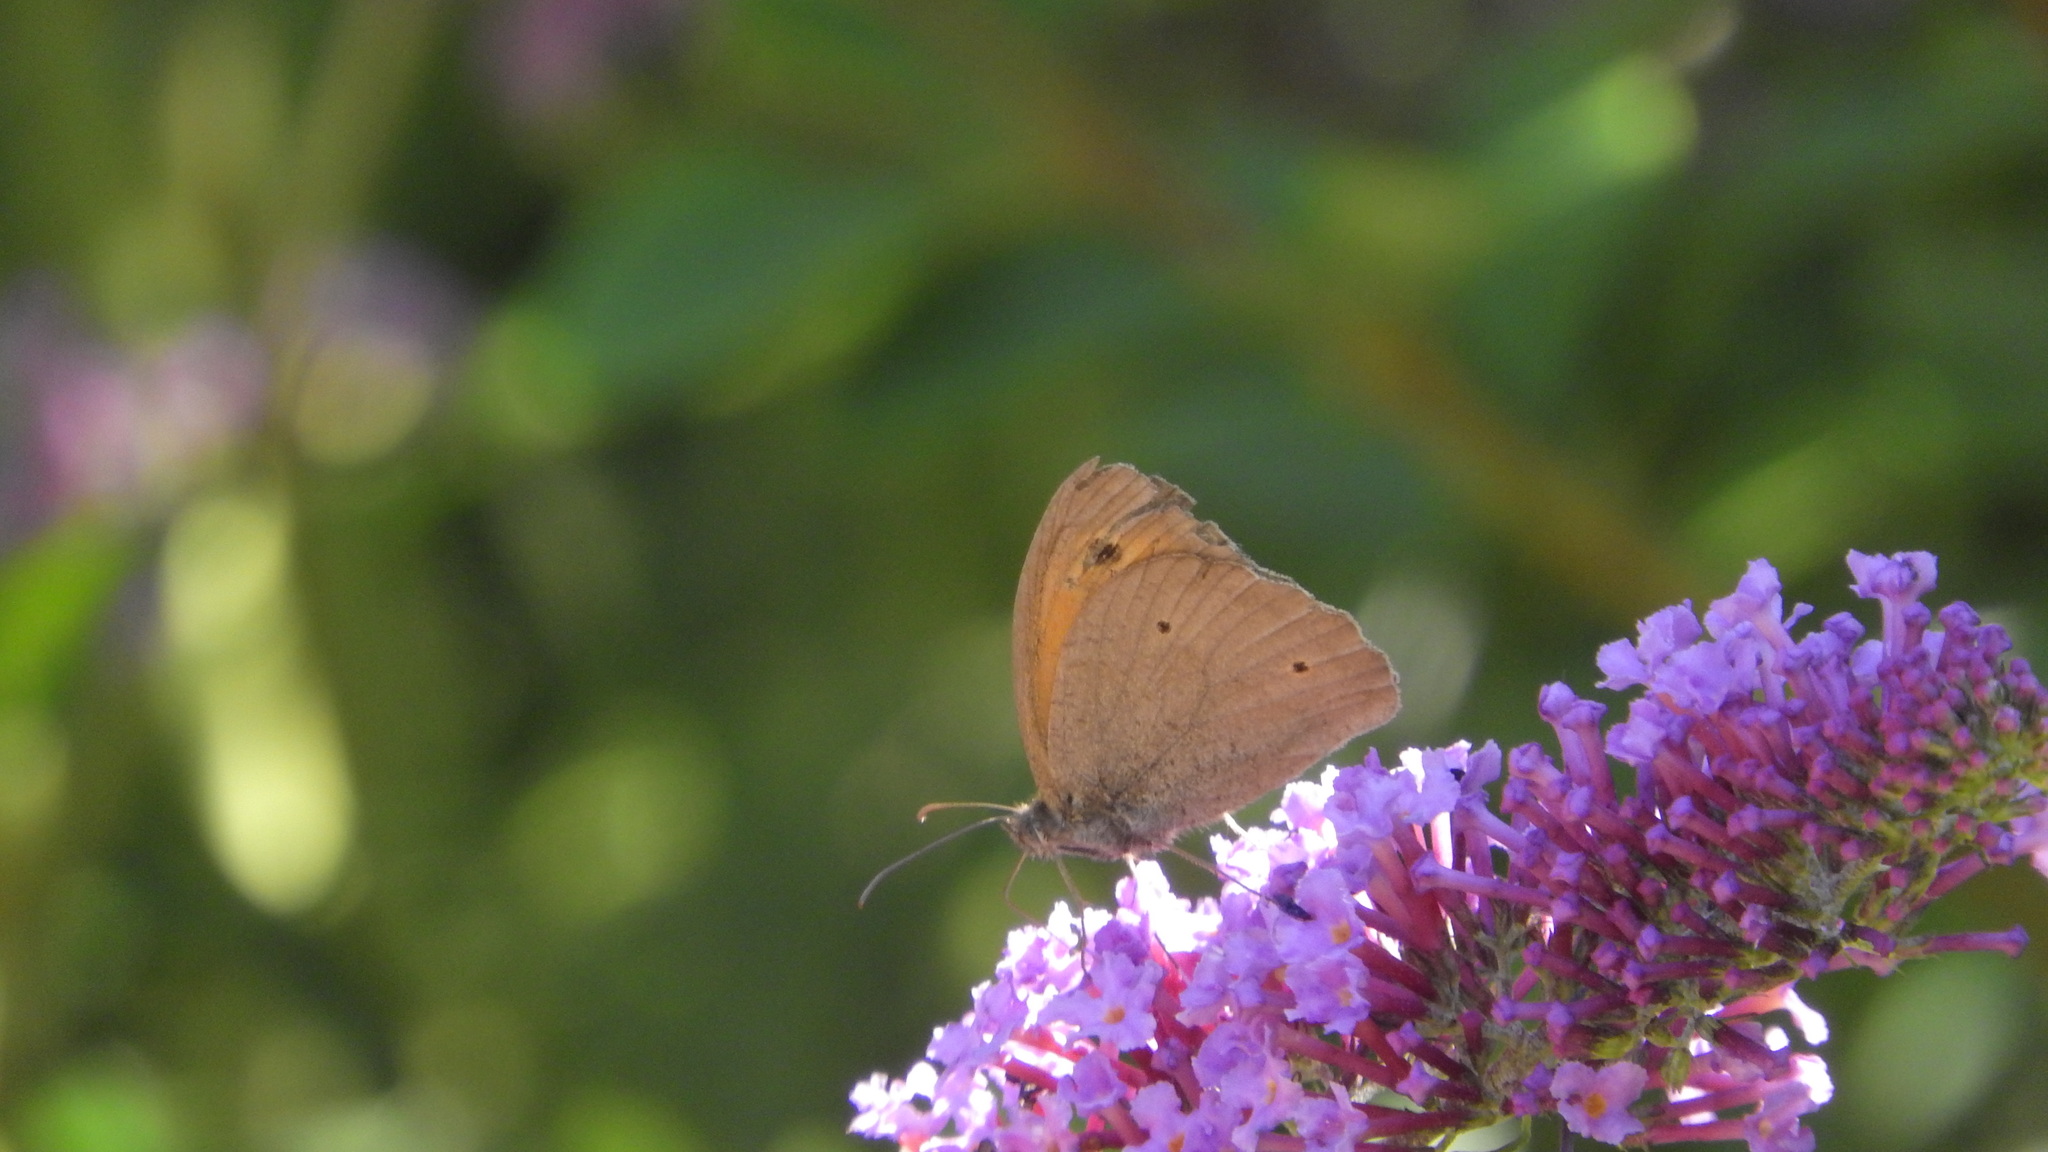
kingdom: Animalia
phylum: Arthropoda
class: Insecta
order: Lepidoptera
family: Nymphalidae
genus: Maniola
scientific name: Maniola jurtina
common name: Meadow brown
